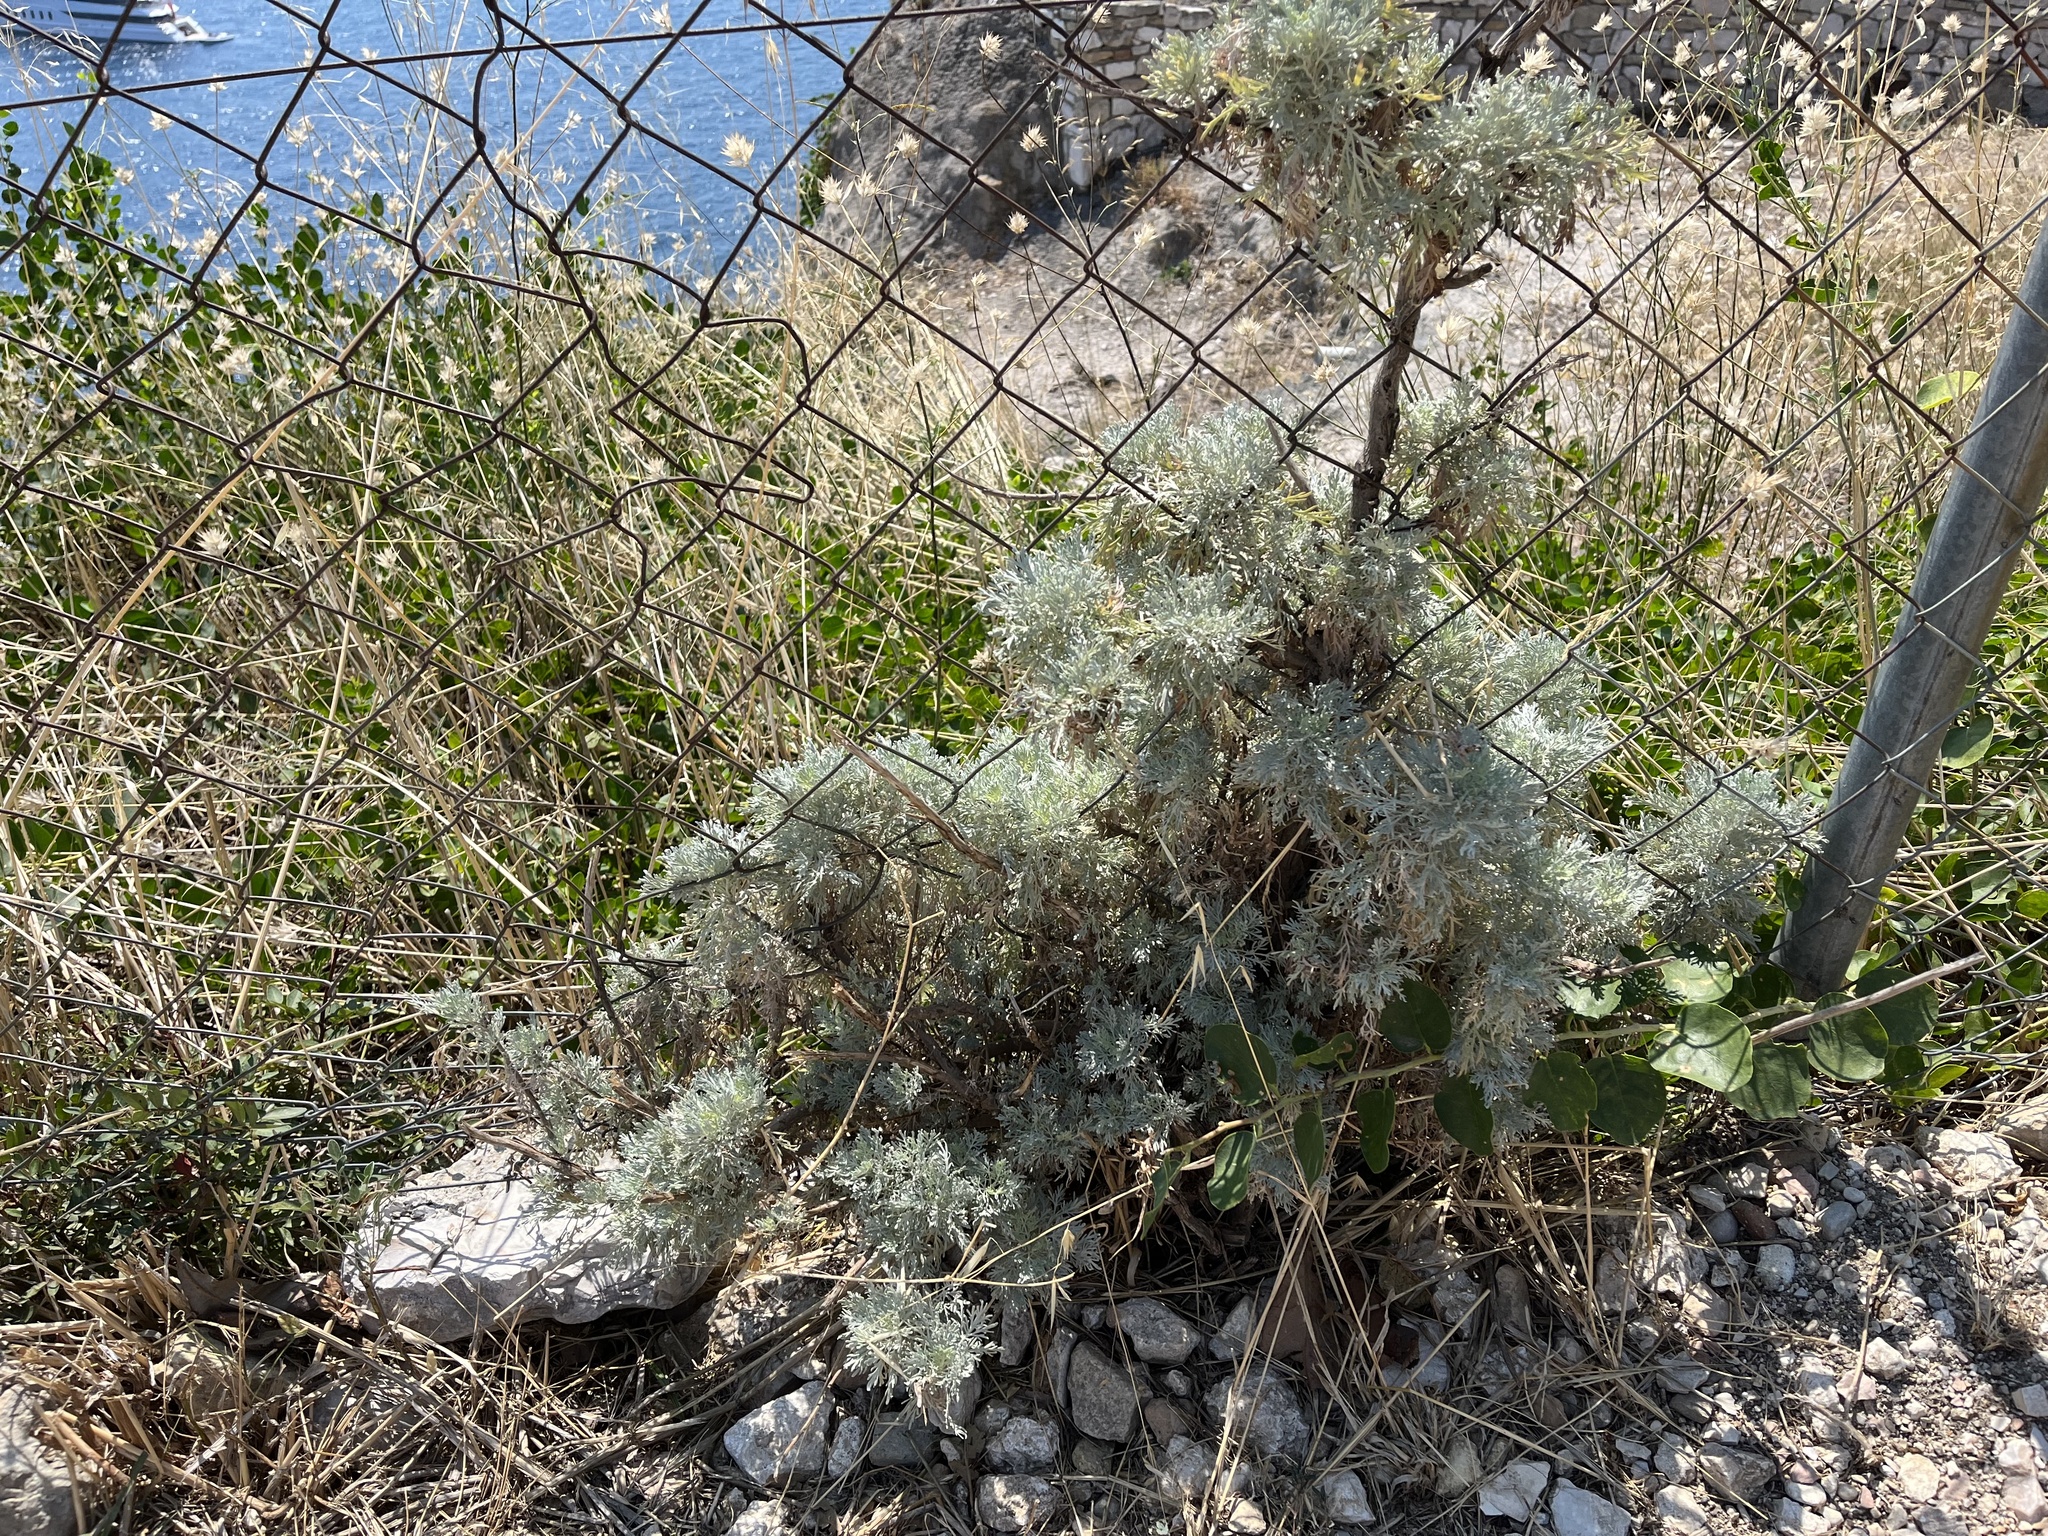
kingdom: Plantae
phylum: Tracheophyta
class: Magnoliopsida
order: Asterales
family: Asteraceae
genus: Artemisia
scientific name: Artemisia arborescens
